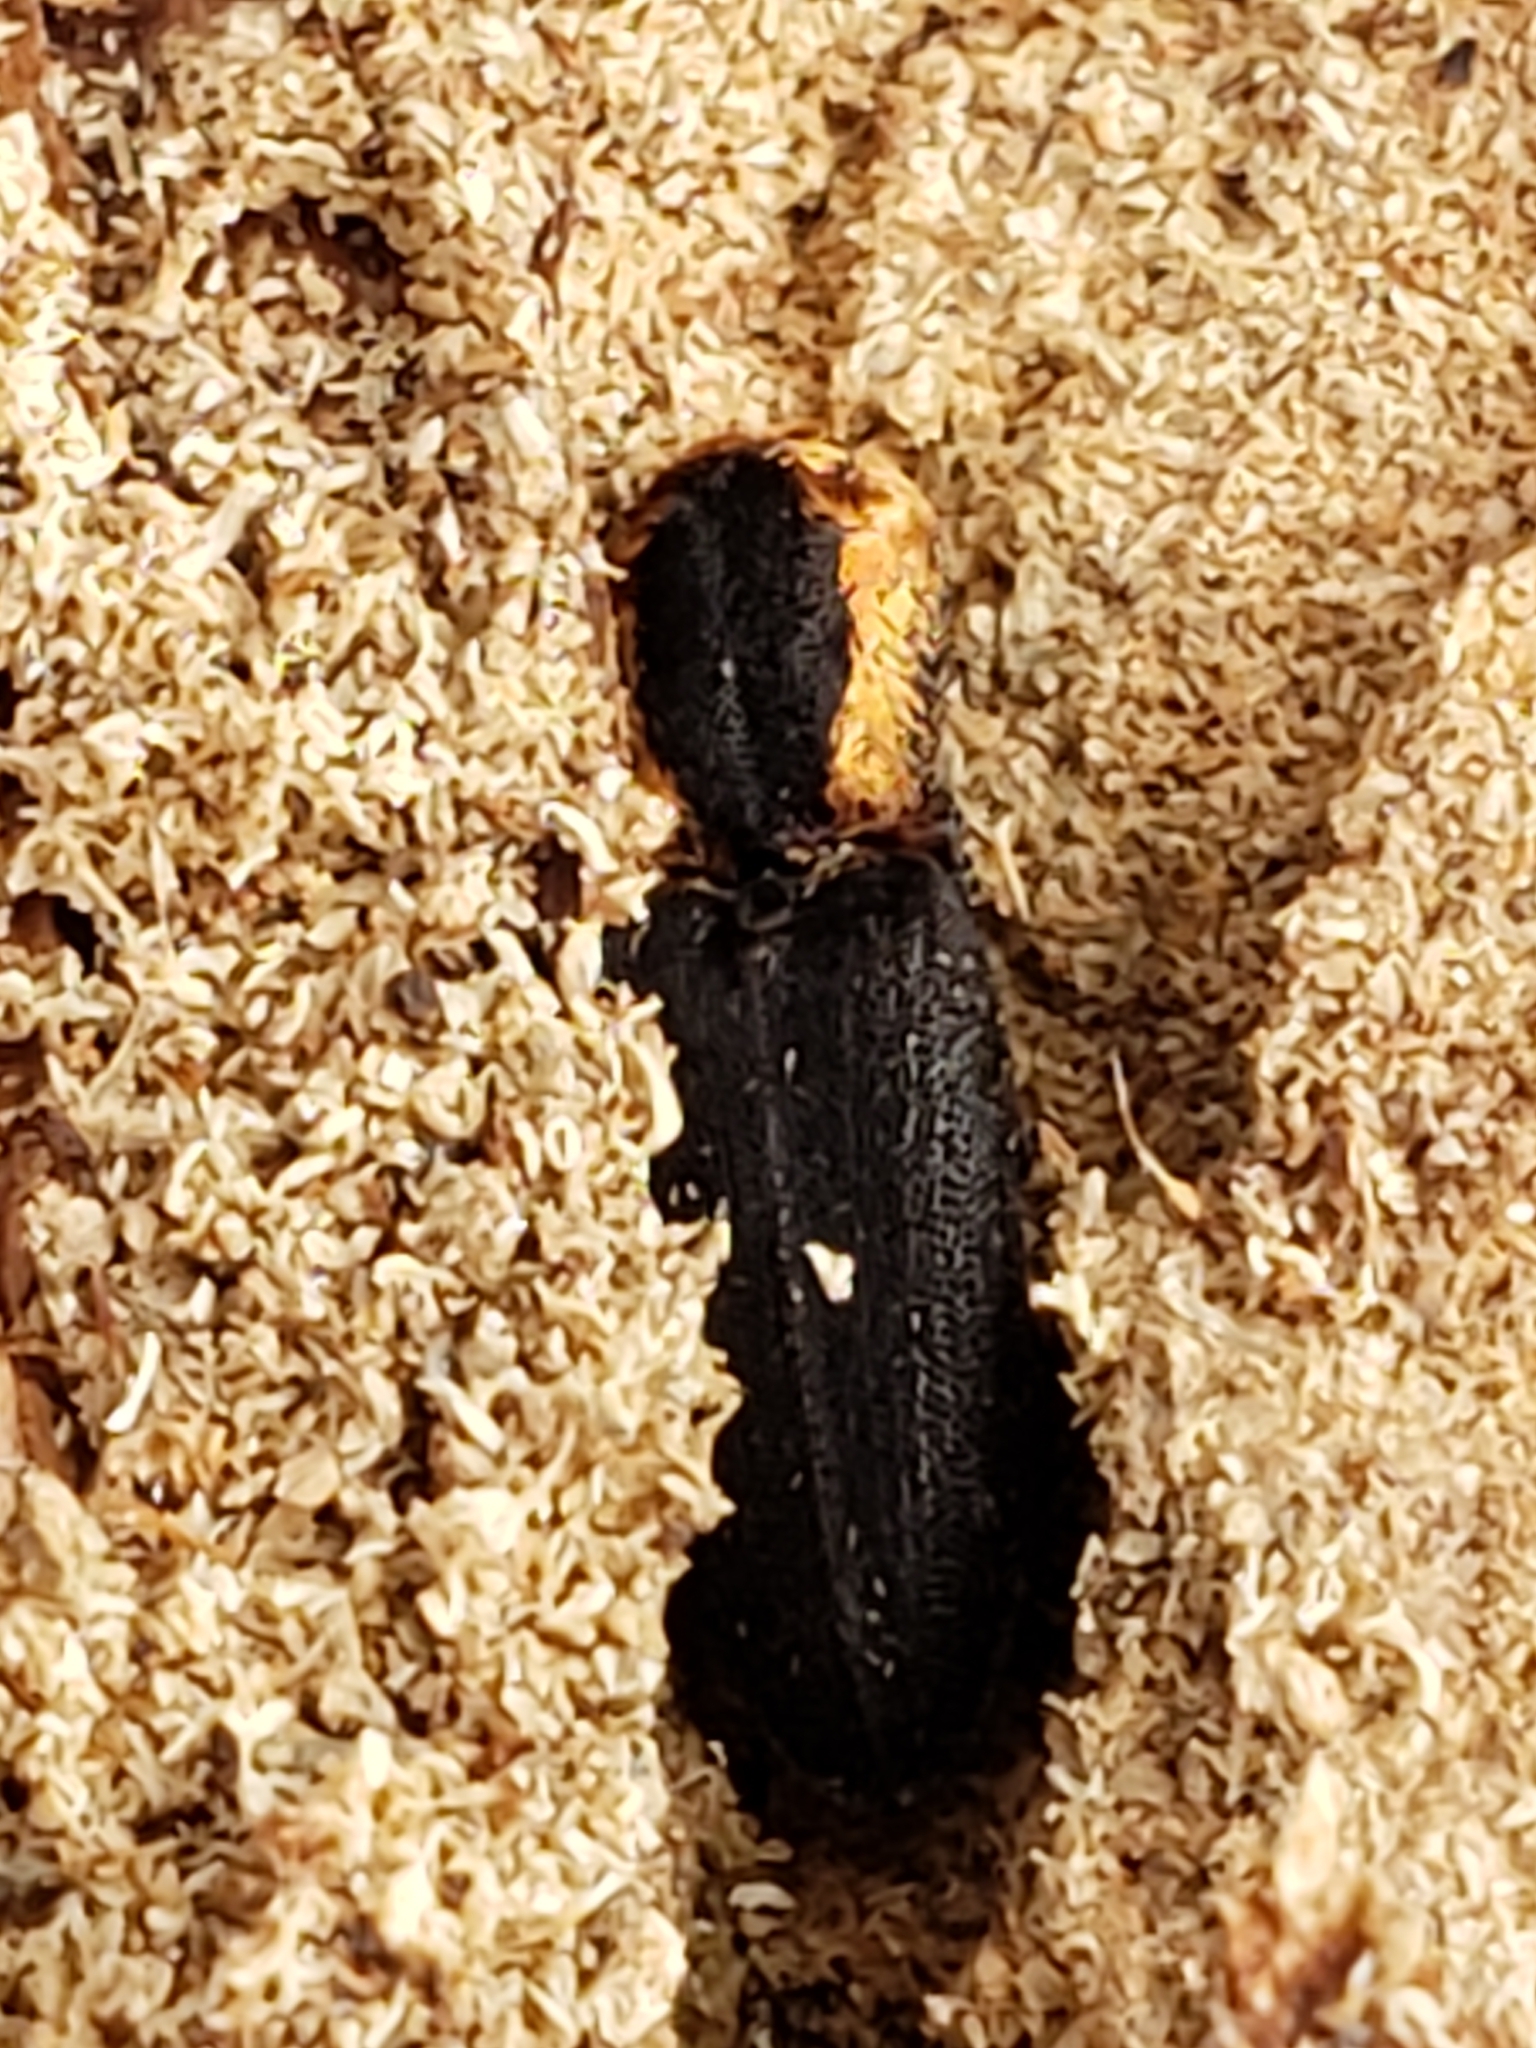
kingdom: Animalia
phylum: Arthropoda
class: Insecta
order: Coleoptera
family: Elateridae
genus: Lacon
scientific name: Lacon discoideus
